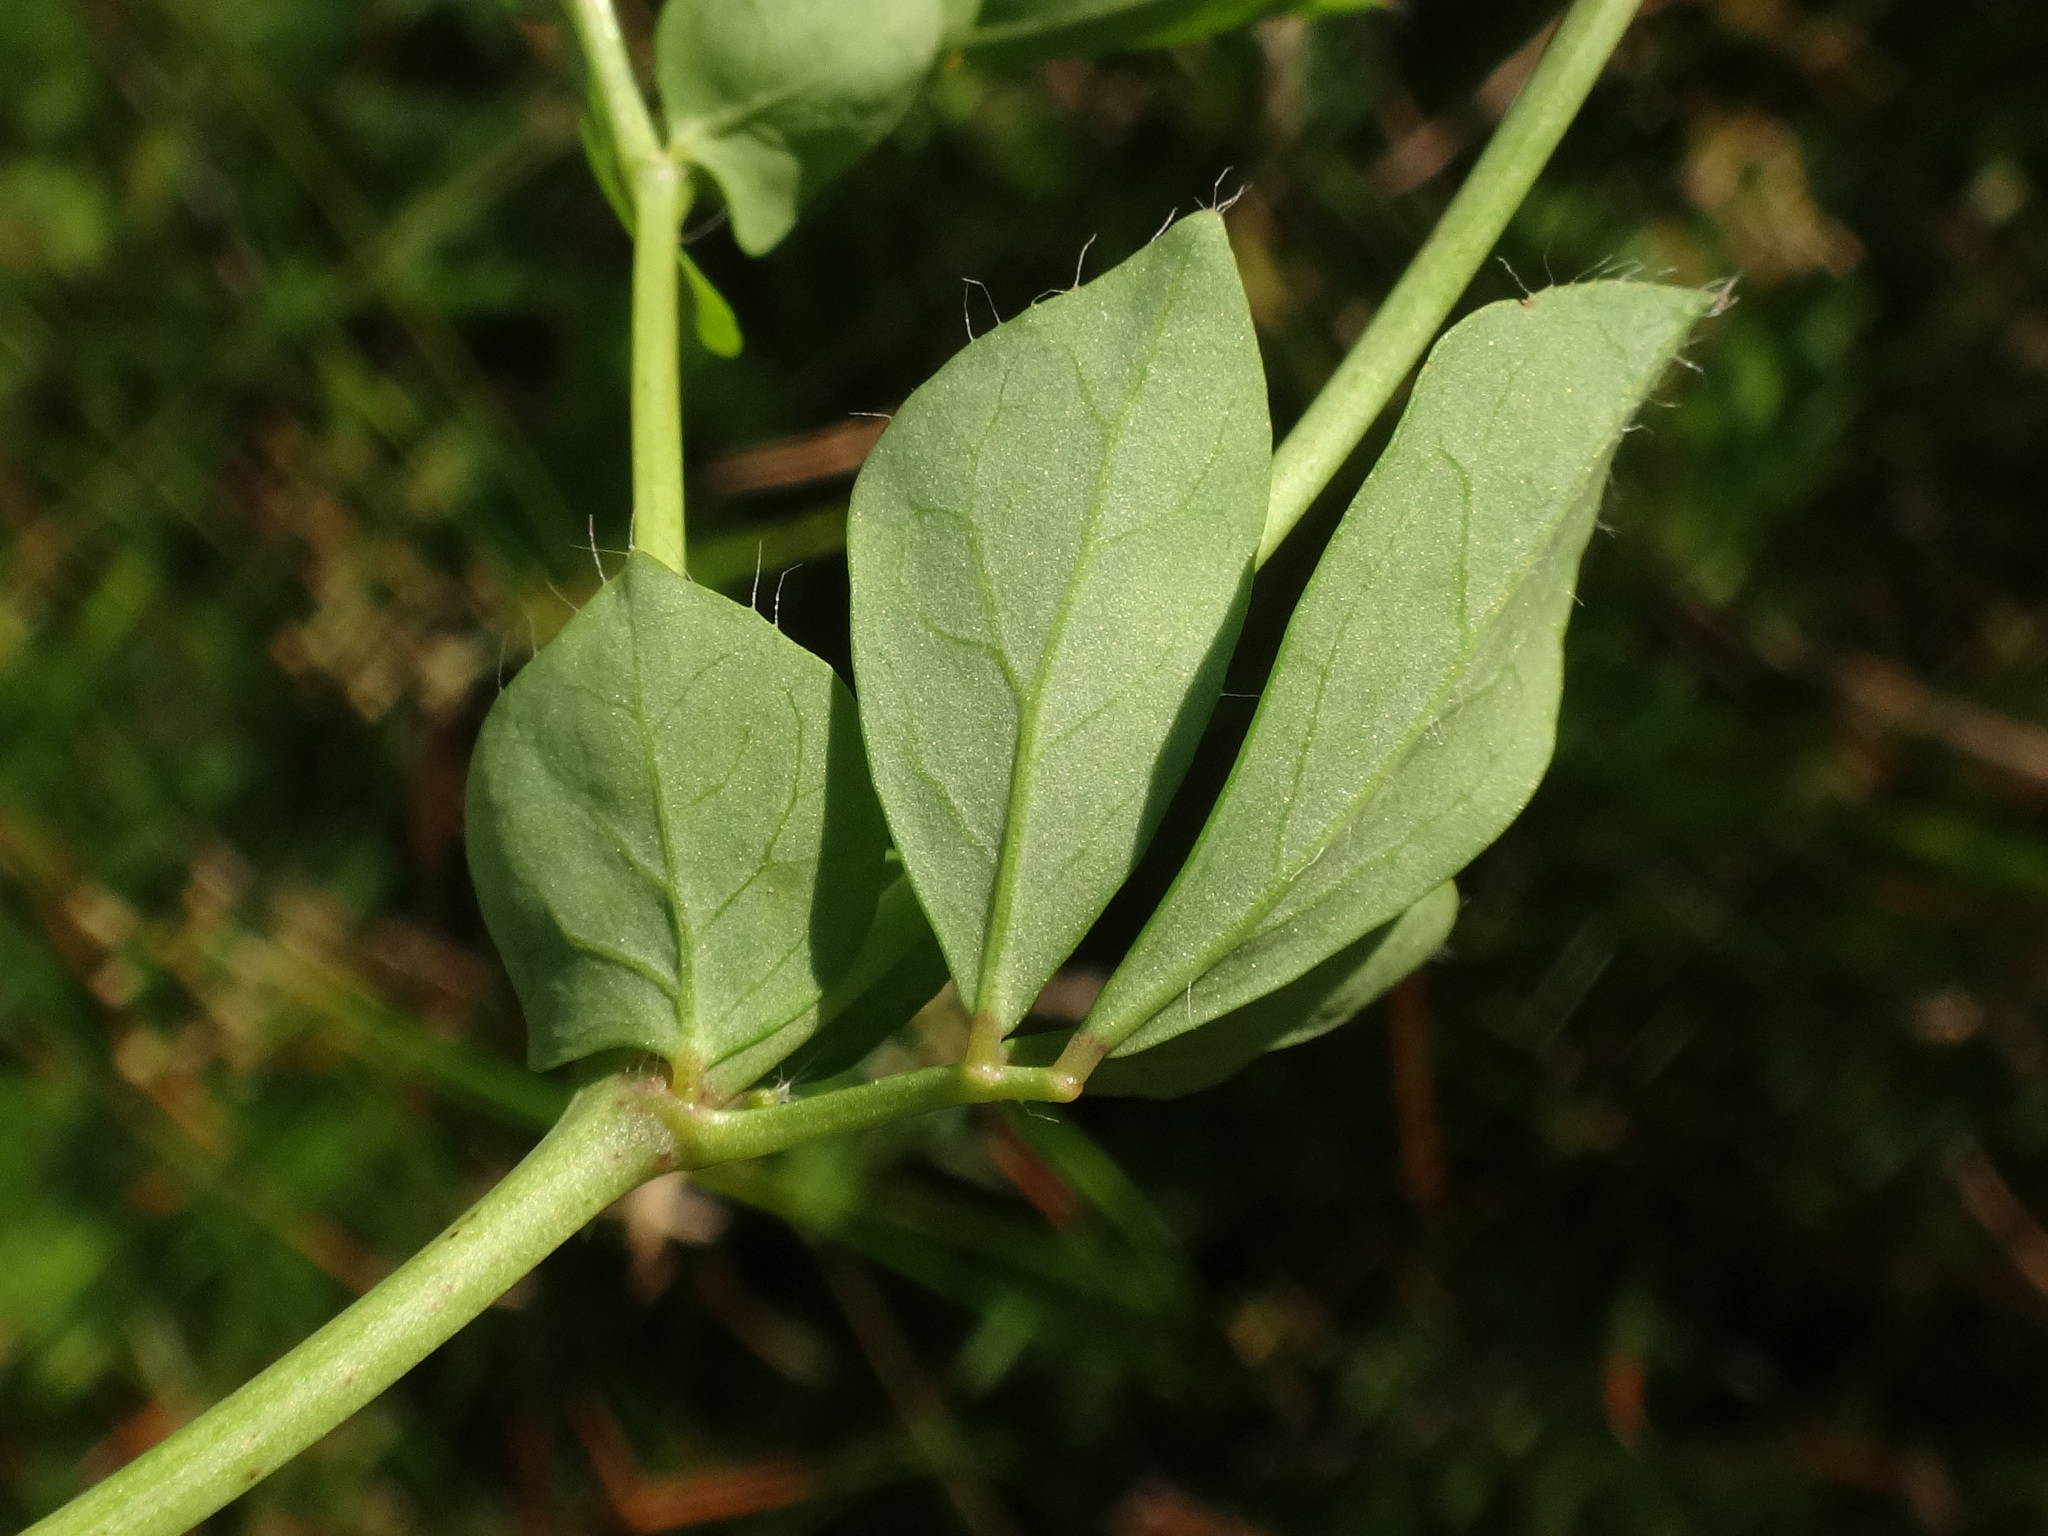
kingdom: Plantae
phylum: Tracheophyta
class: Magnoliopsida
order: Fabales
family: Fabaceae
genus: Lotus
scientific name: Lotus pedunculatus
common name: Greater birdsfoot-trefoil
